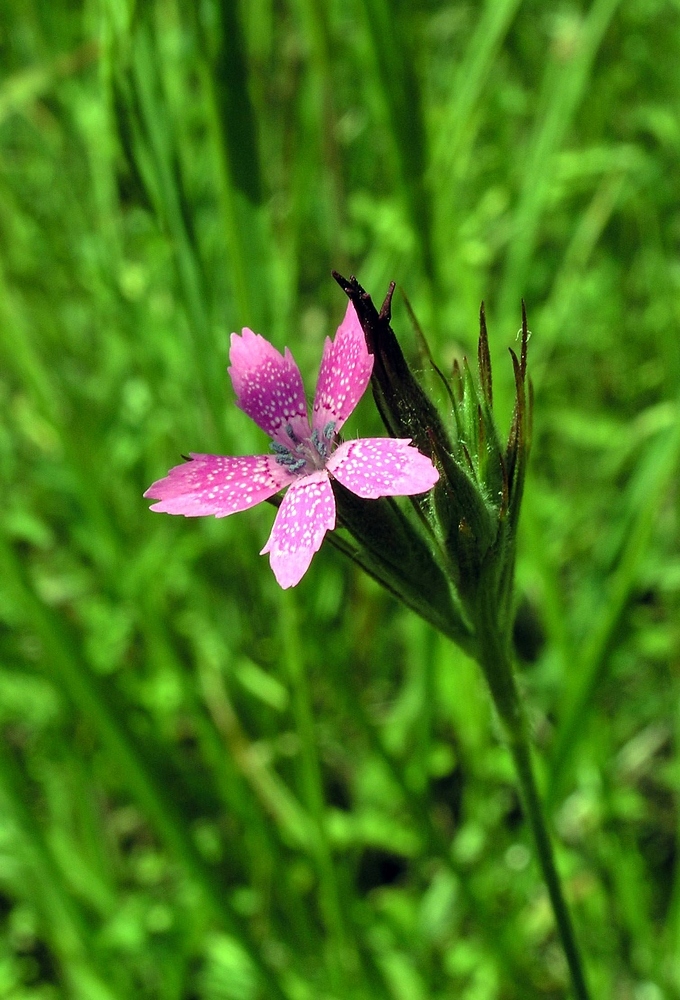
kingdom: Plantae
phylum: Tracheophyta
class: Magnoliopsida
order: Caryophyllales
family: Caryophyllaceae
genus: Dianthus
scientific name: Dianthus armeria
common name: Deptford pink
